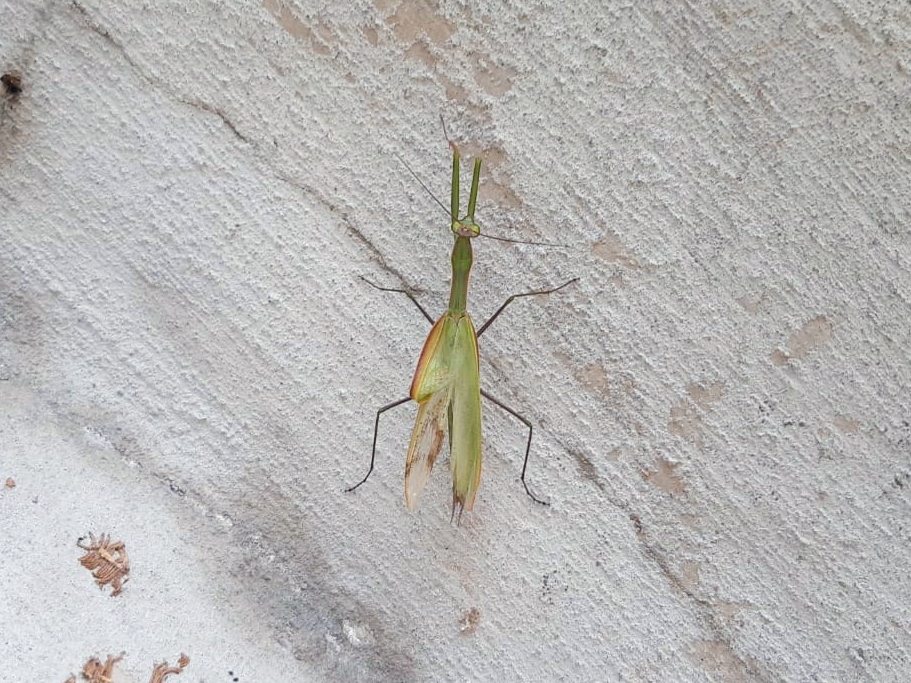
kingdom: Animalia
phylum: Arthropoda
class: Insecta
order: Mantodea
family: Mantidae
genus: Mantis
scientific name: Mantis religiosa
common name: Praying mantis
